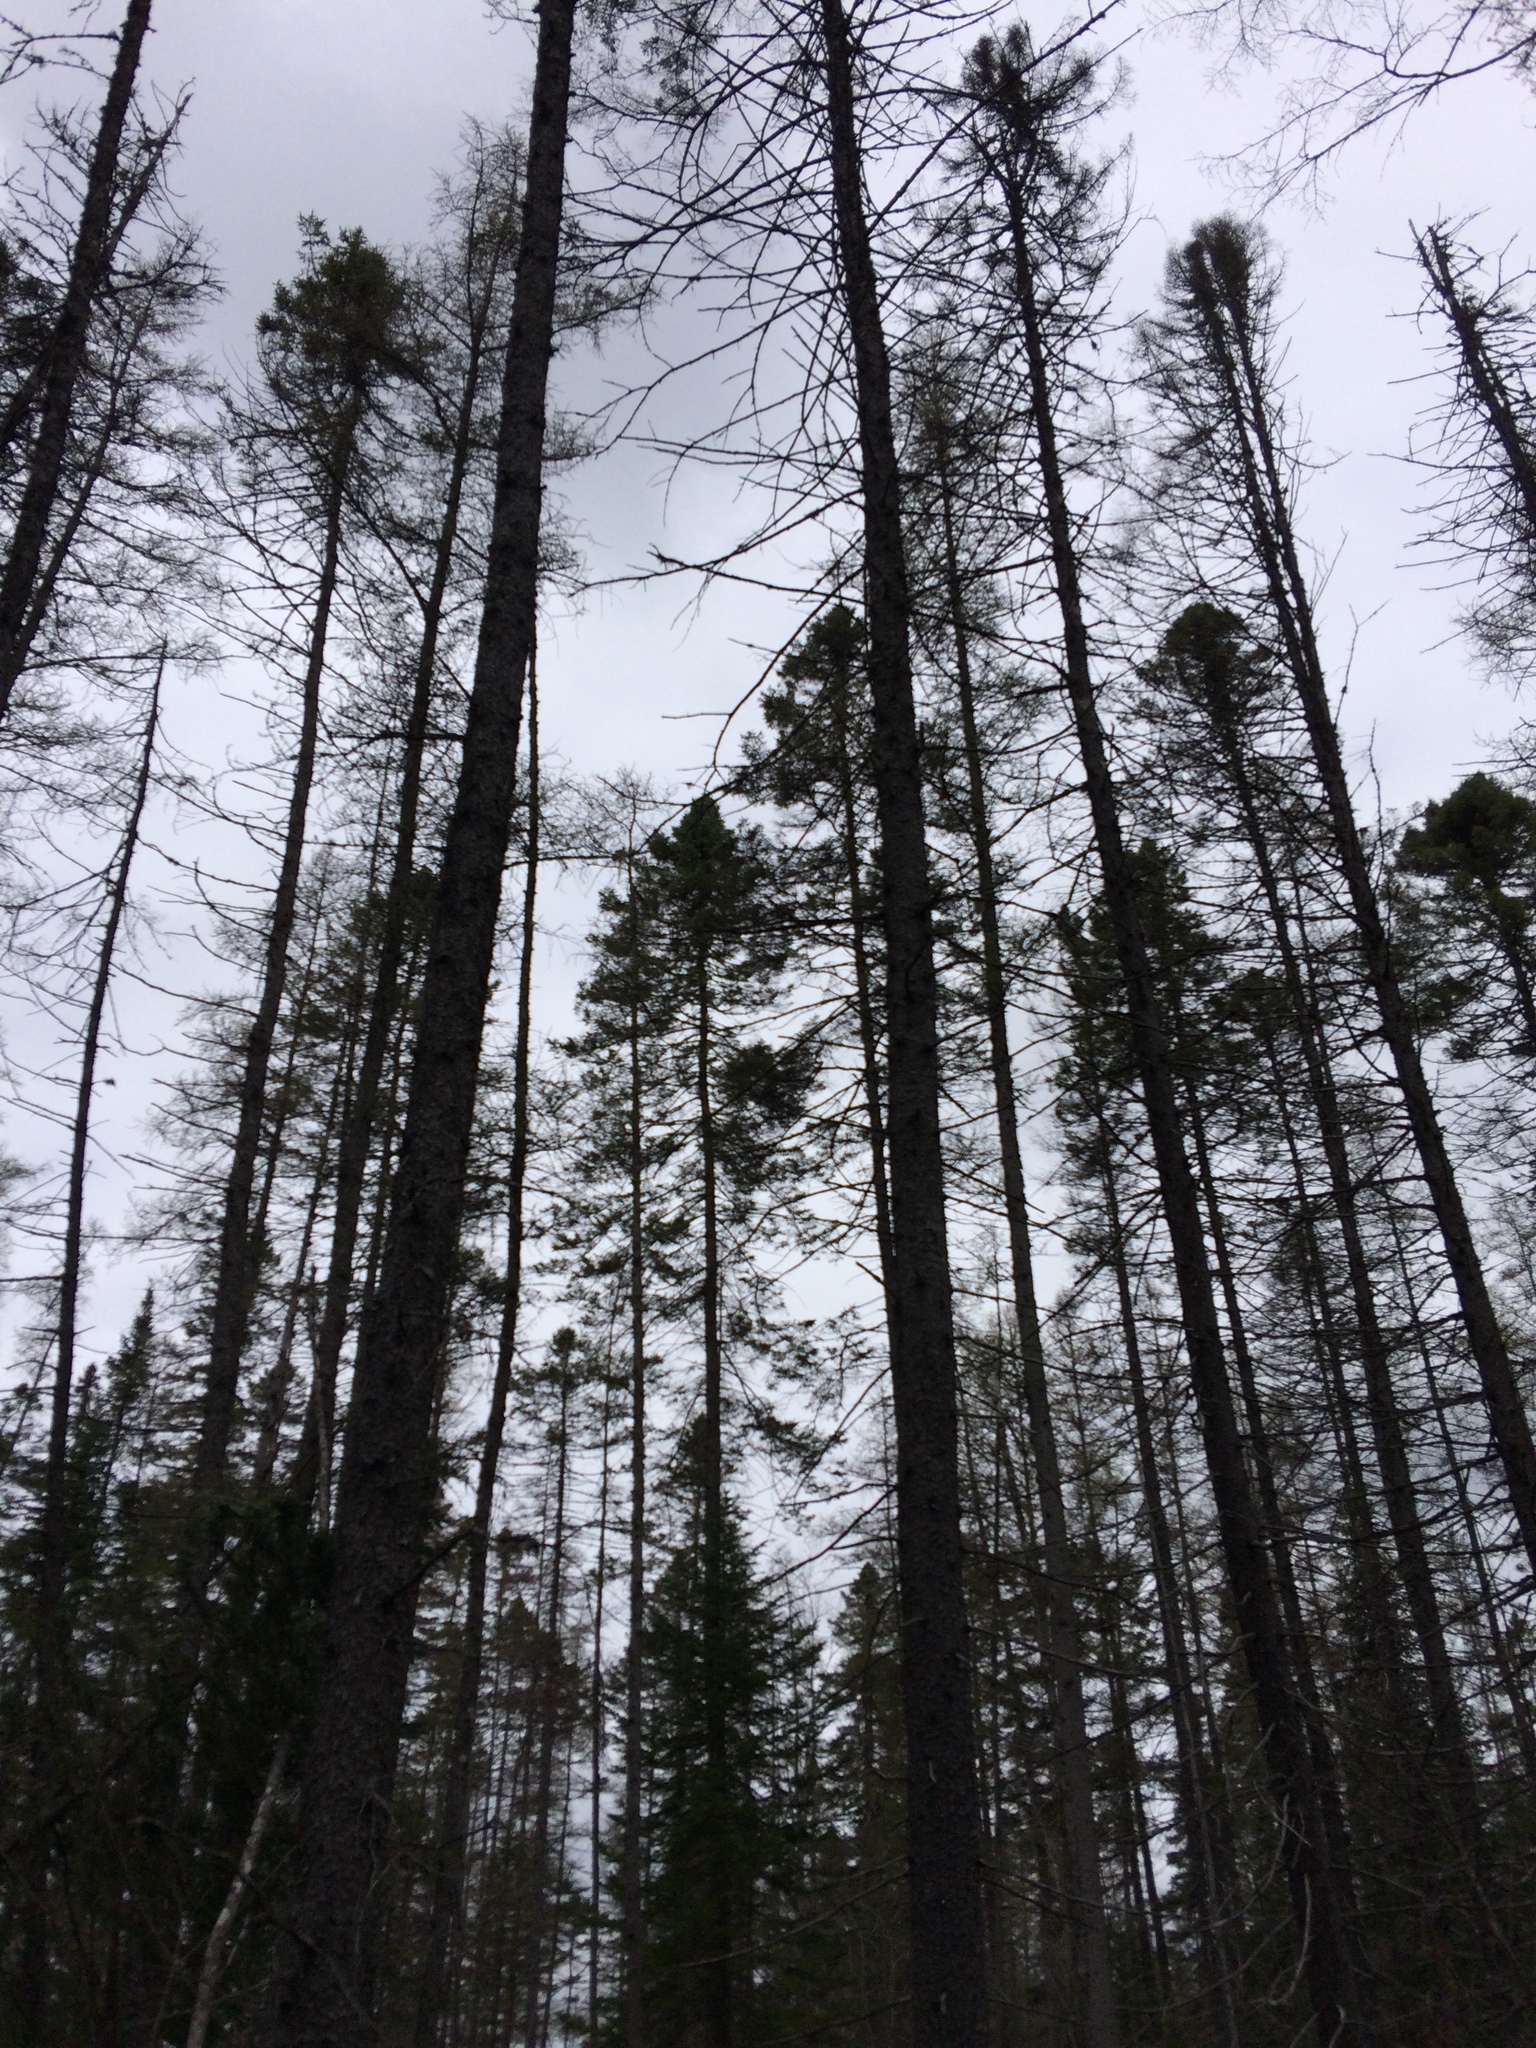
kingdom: Plantae
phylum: Tracheophyta
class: Pinopsida
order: Pinales
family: Pinaceae
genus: Picea
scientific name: Picea mariana
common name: Black spruce
